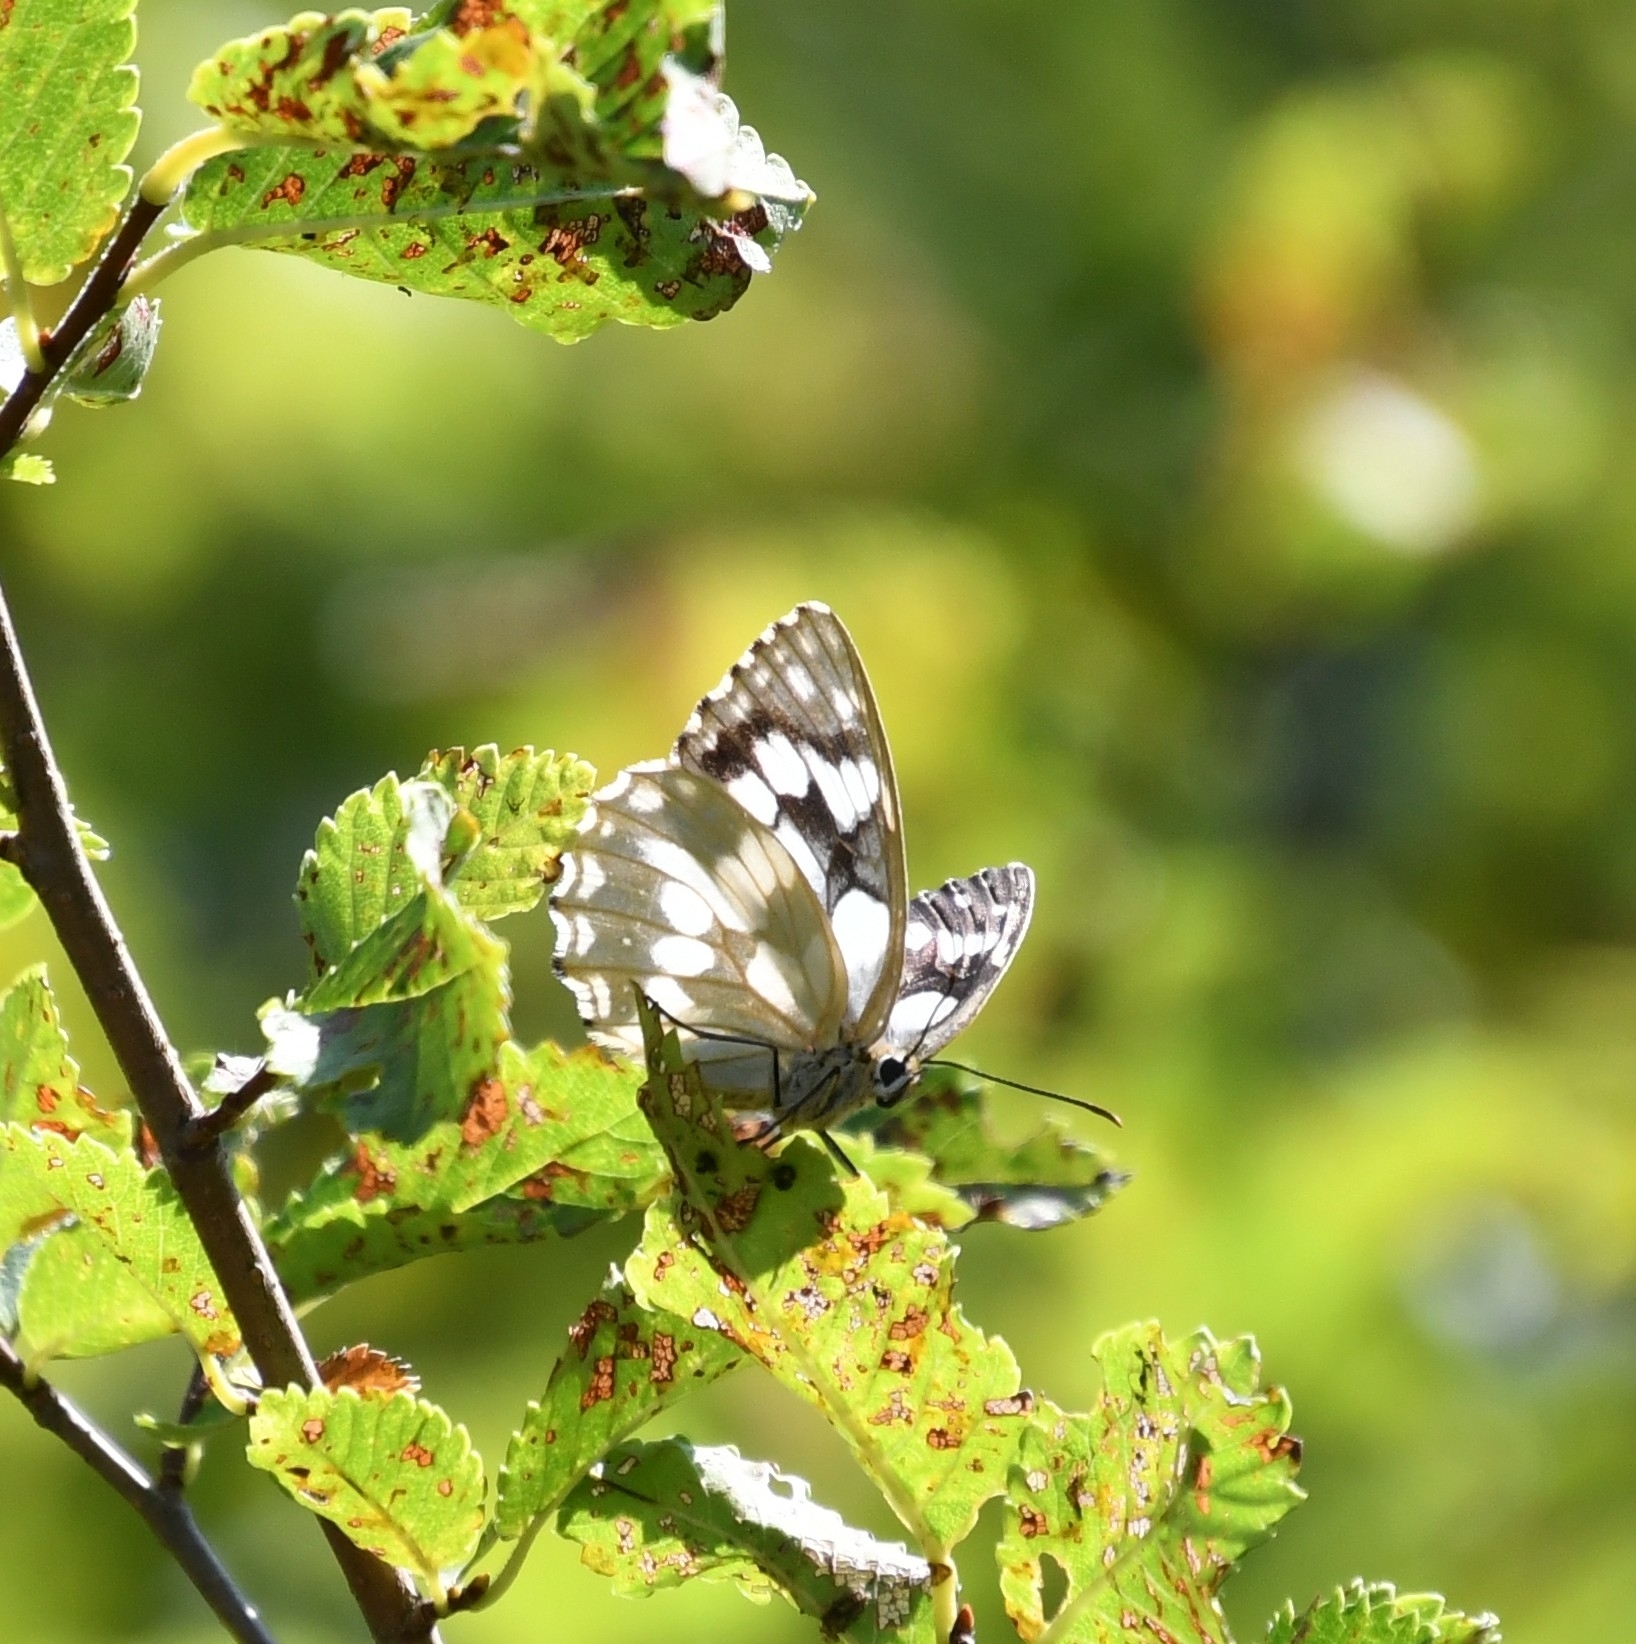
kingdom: Animalia
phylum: Arthropoda
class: Insecta
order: Lepidoptera
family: Nymphalidae
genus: Melanargia
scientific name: Melanargia galathea
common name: Marbled white
